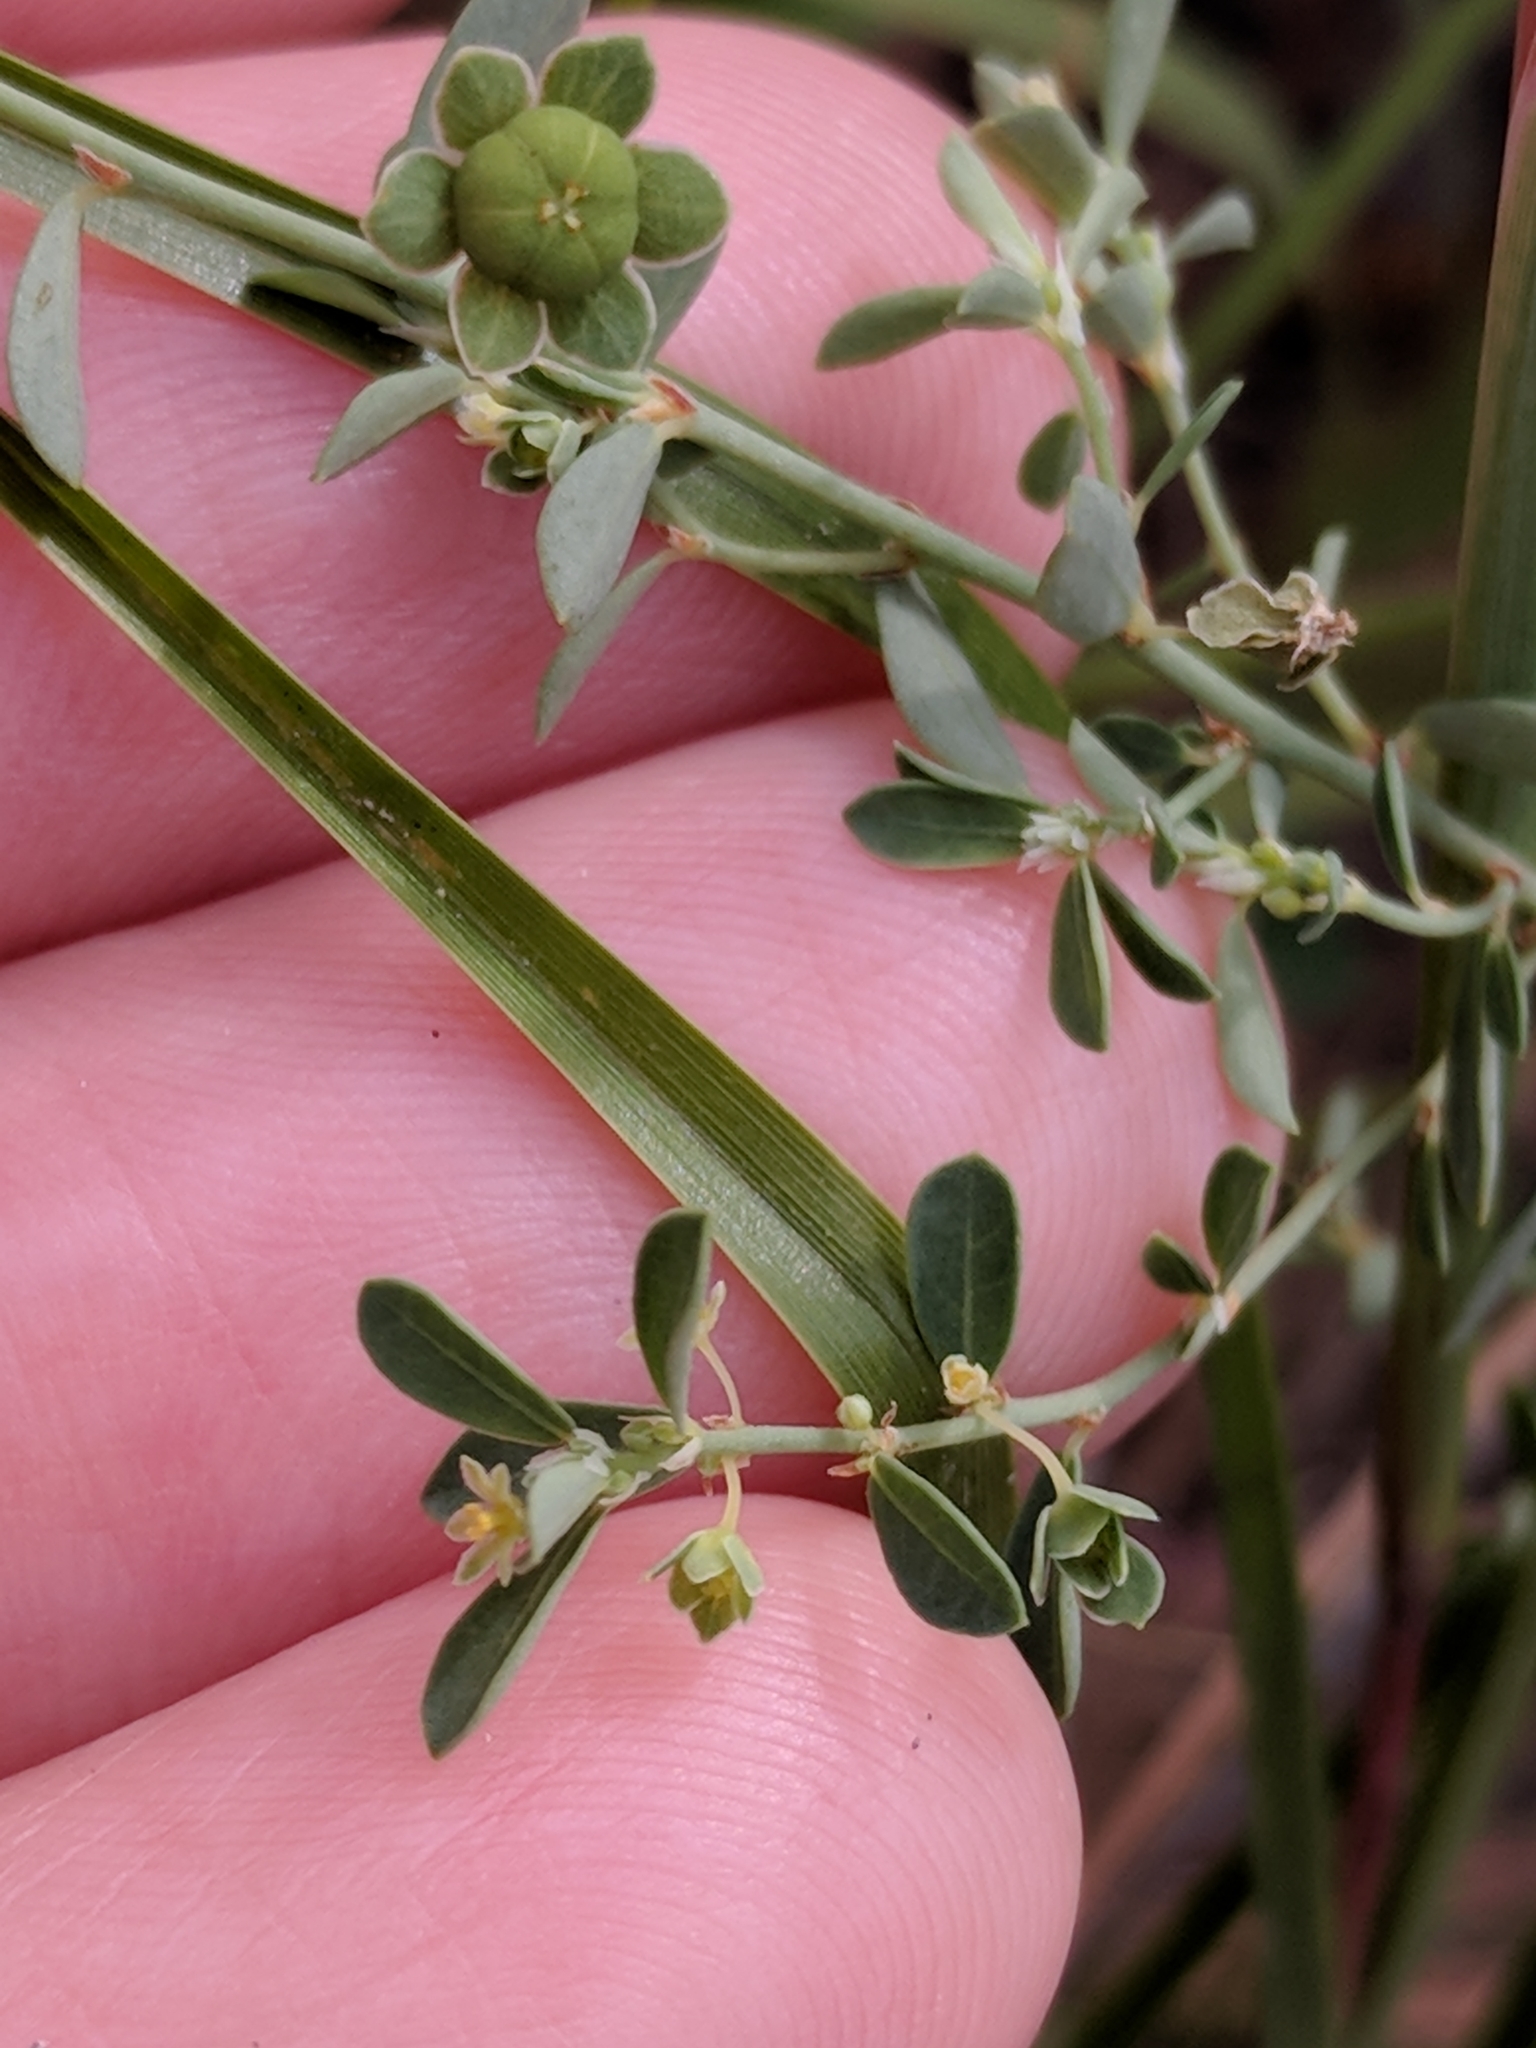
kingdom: Plantae
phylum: Tracheophyta
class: Magnoliopsida
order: Malpighiales
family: Phyllanthaceae
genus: Phyllanthus
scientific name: Phyllanthus polygonoides
